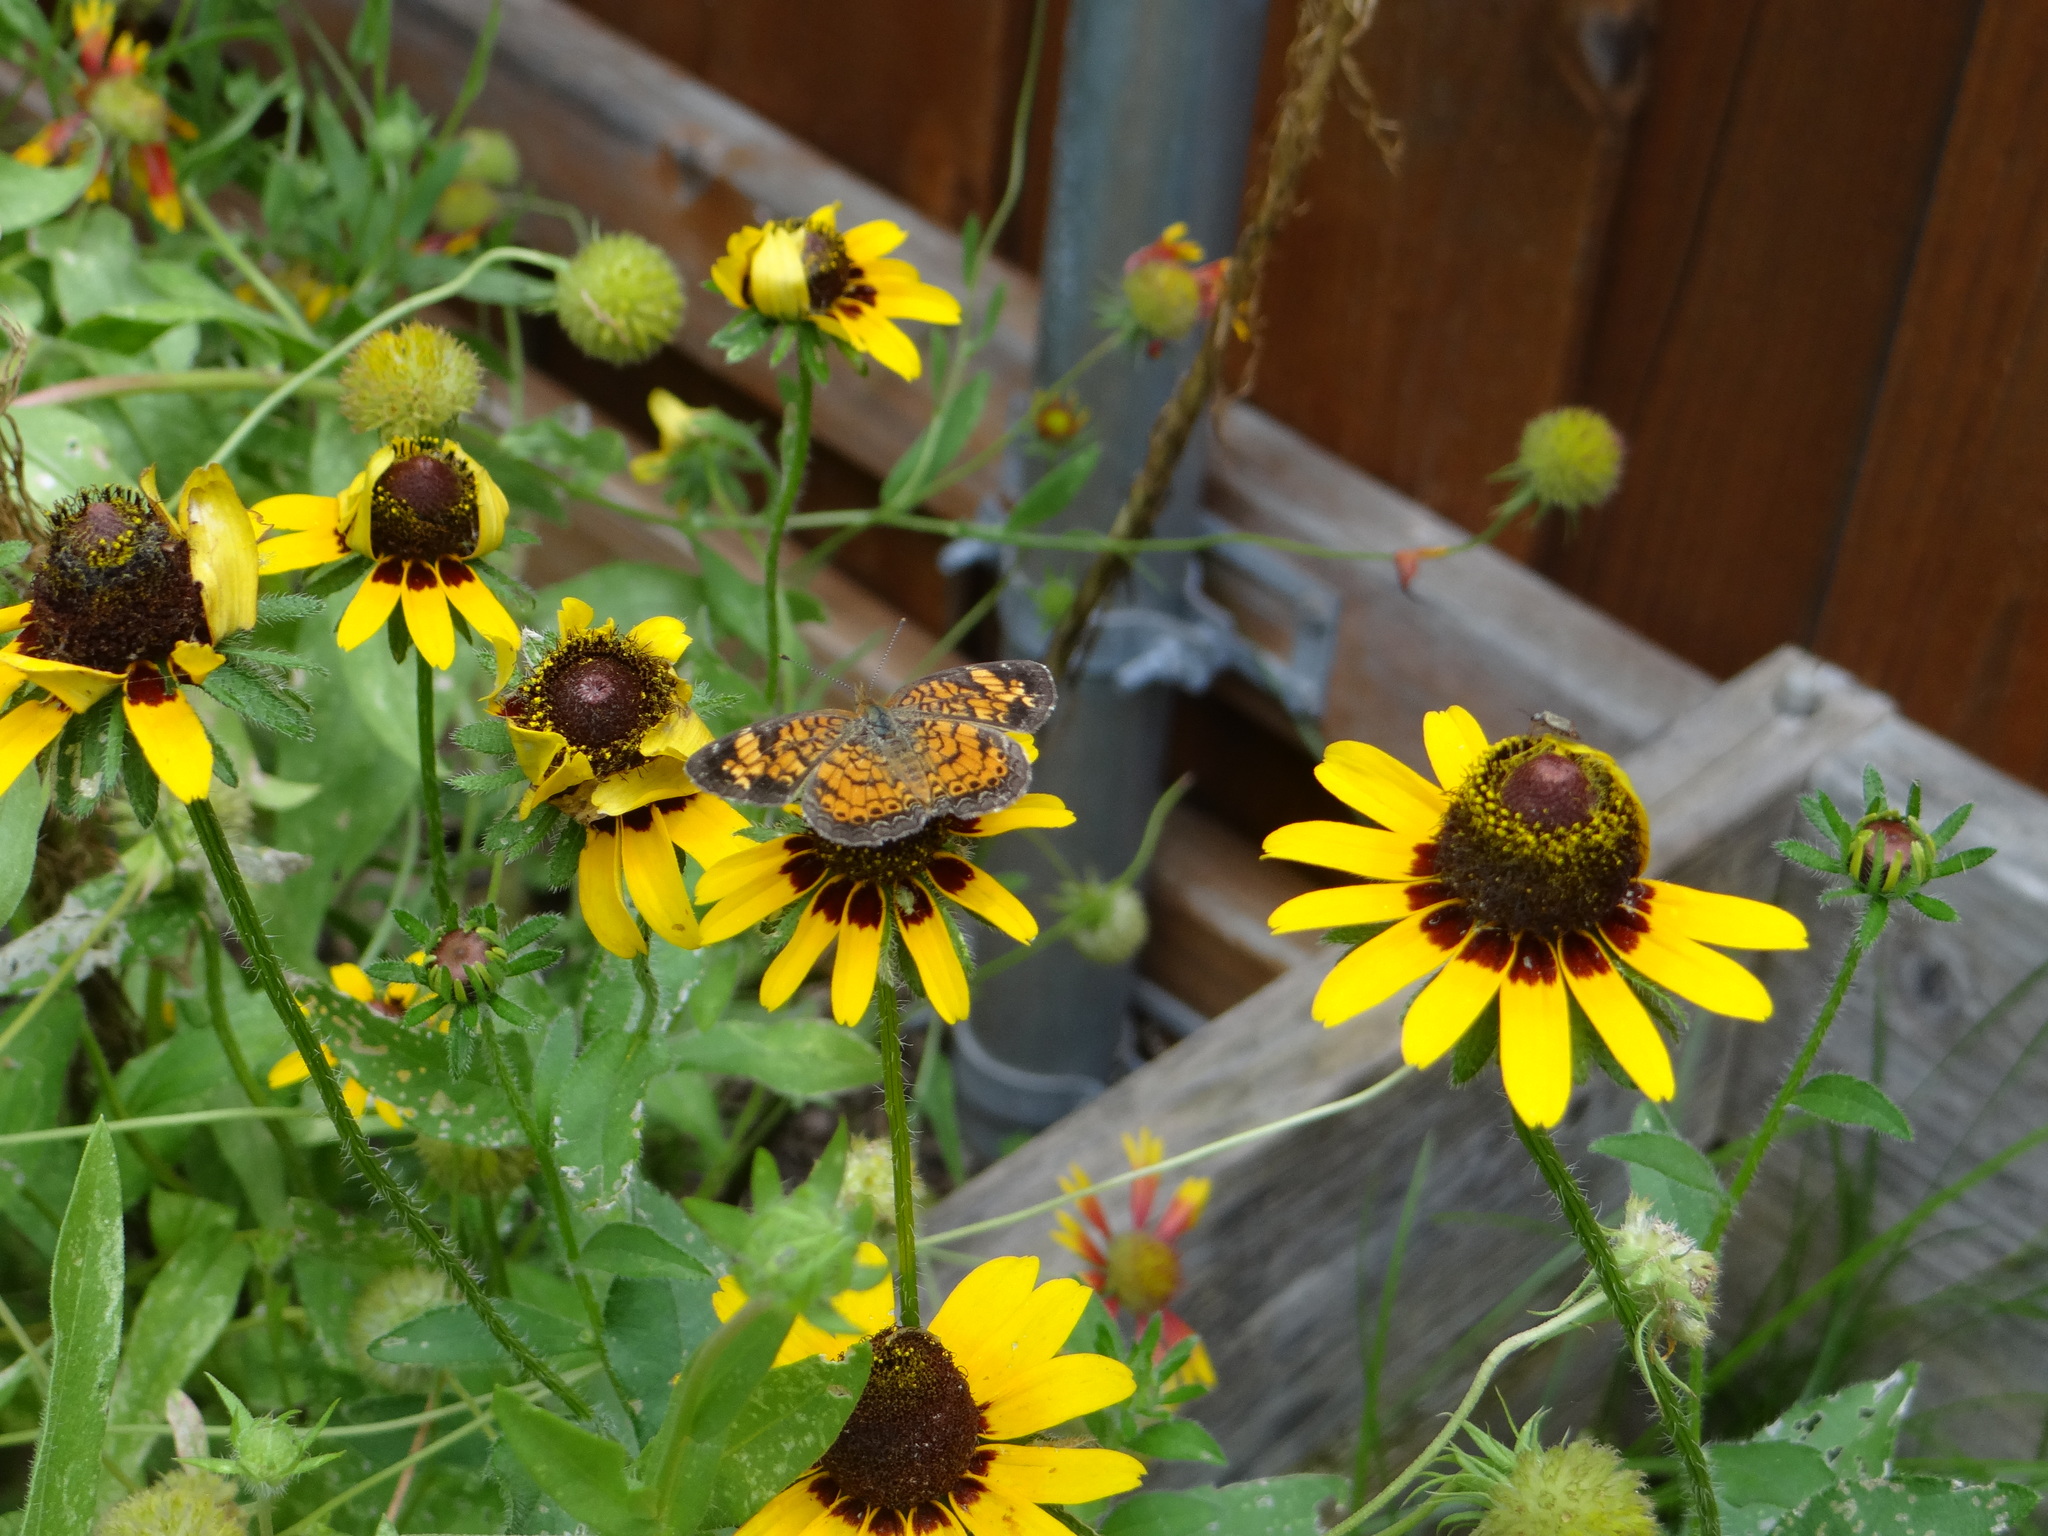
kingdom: Animalia
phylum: Arthropoda
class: Insecta
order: Lepidoptera
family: Nymphalidae
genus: Phyciodes
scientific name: Phyciodes tharos
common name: Pearl crescent
